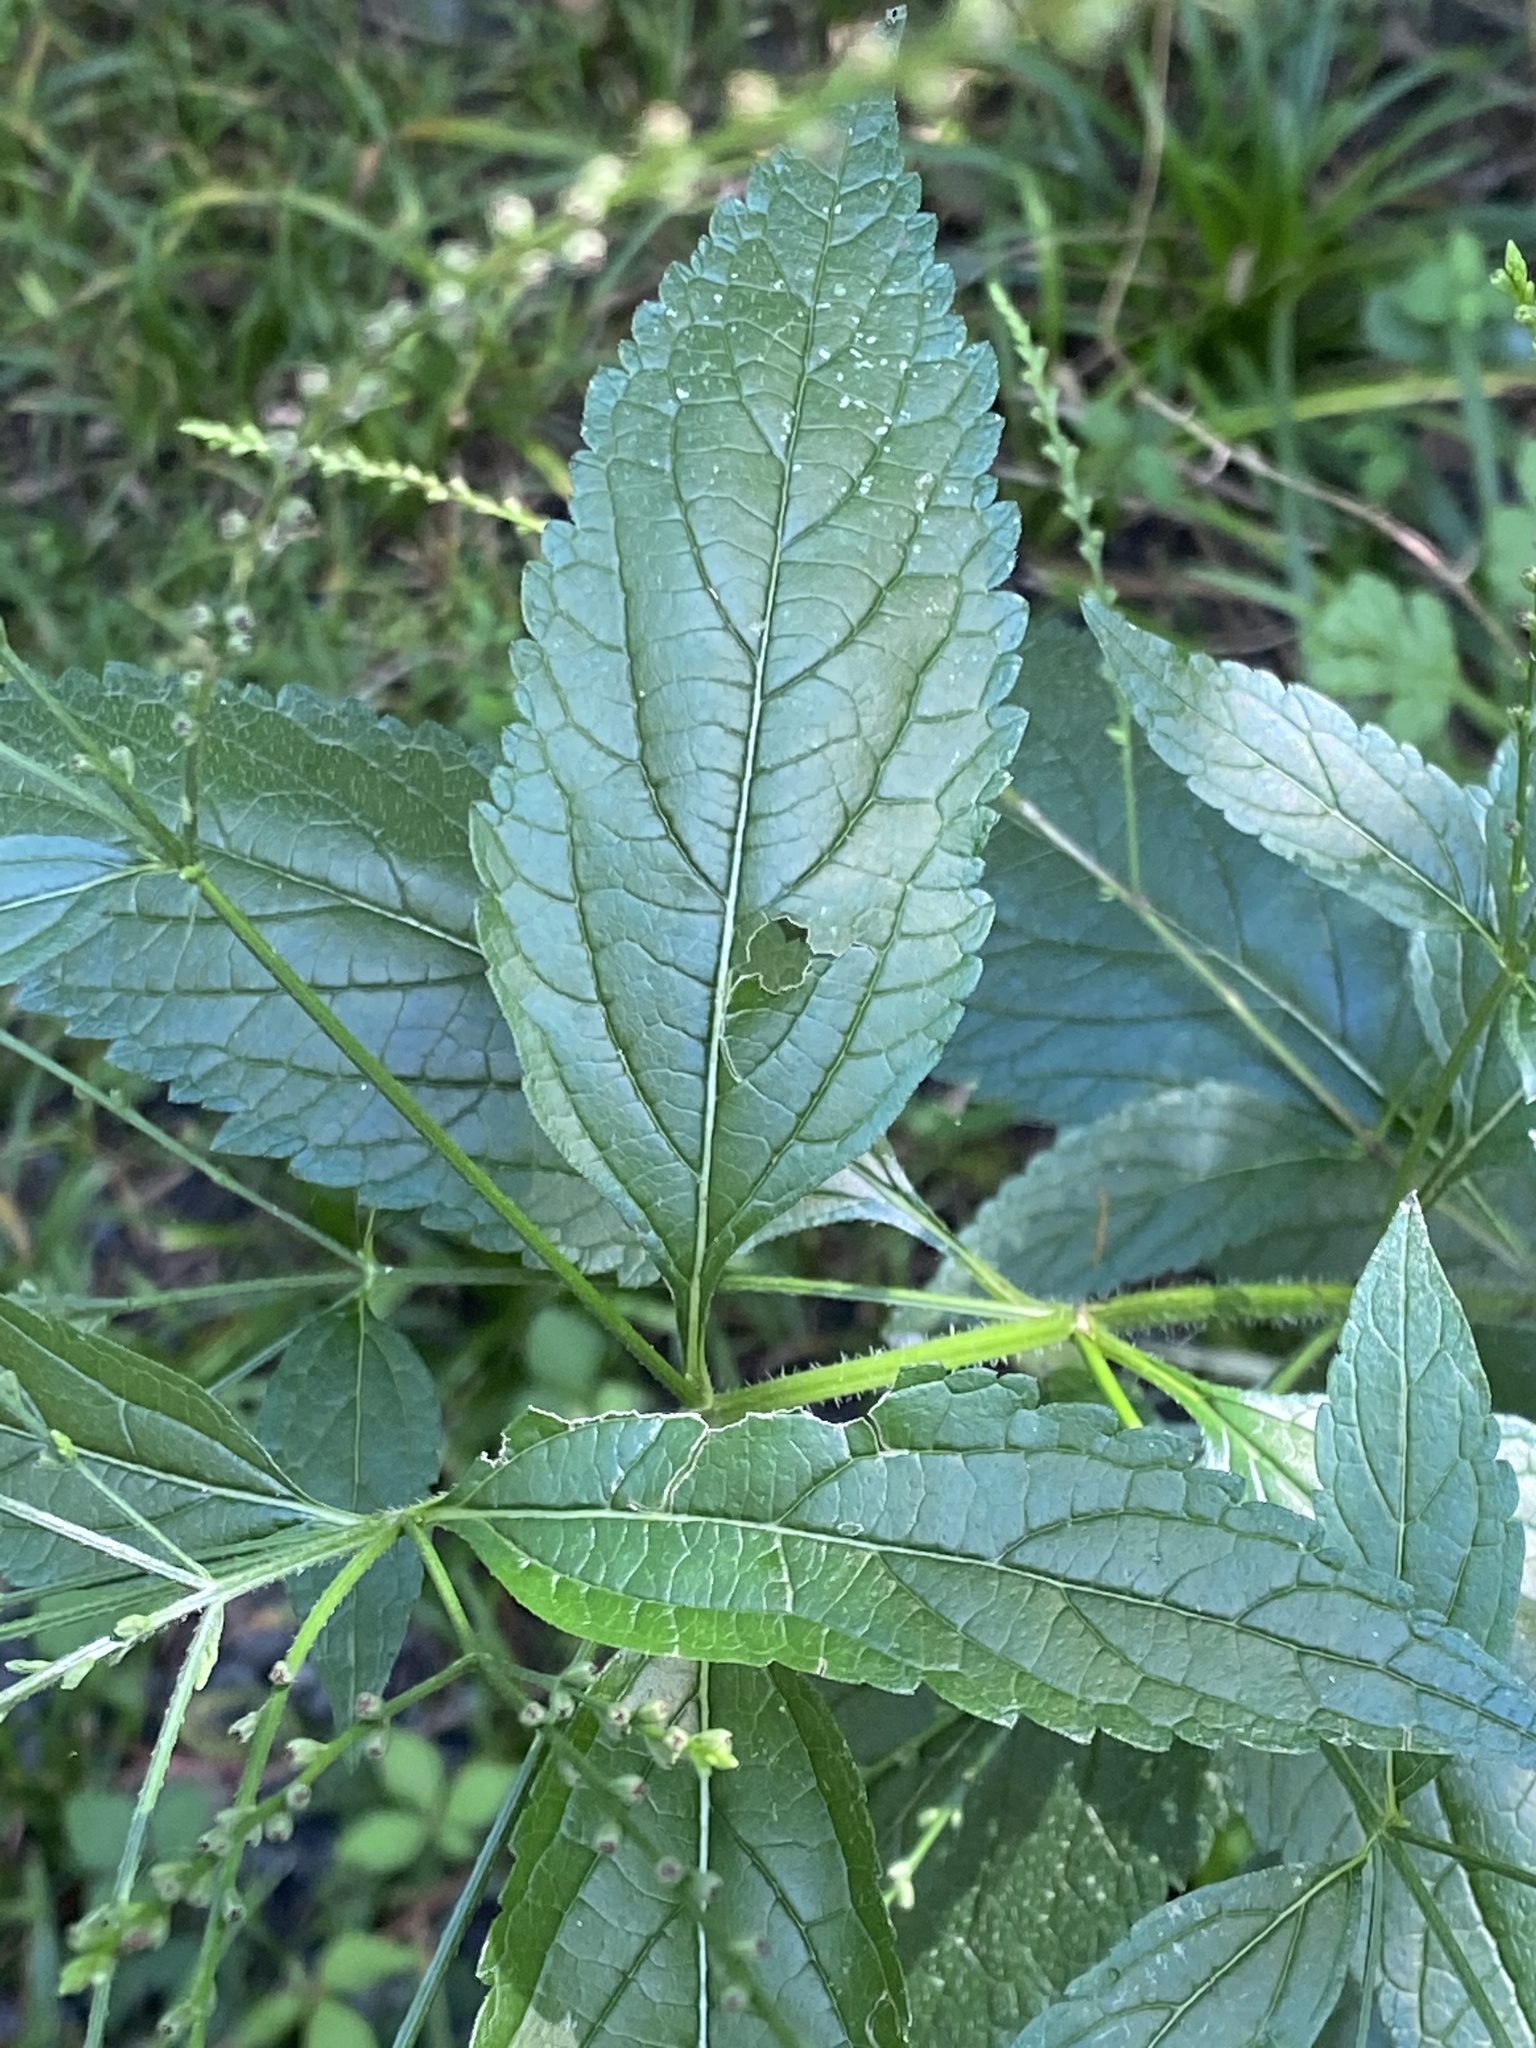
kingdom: Plantae
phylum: Tracheophyta
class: Magnoliopsida
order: Lamiales
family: Verbenaceae
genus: Verbena
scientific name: Verbena urticifolia
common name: Nettle-leaved vervain
